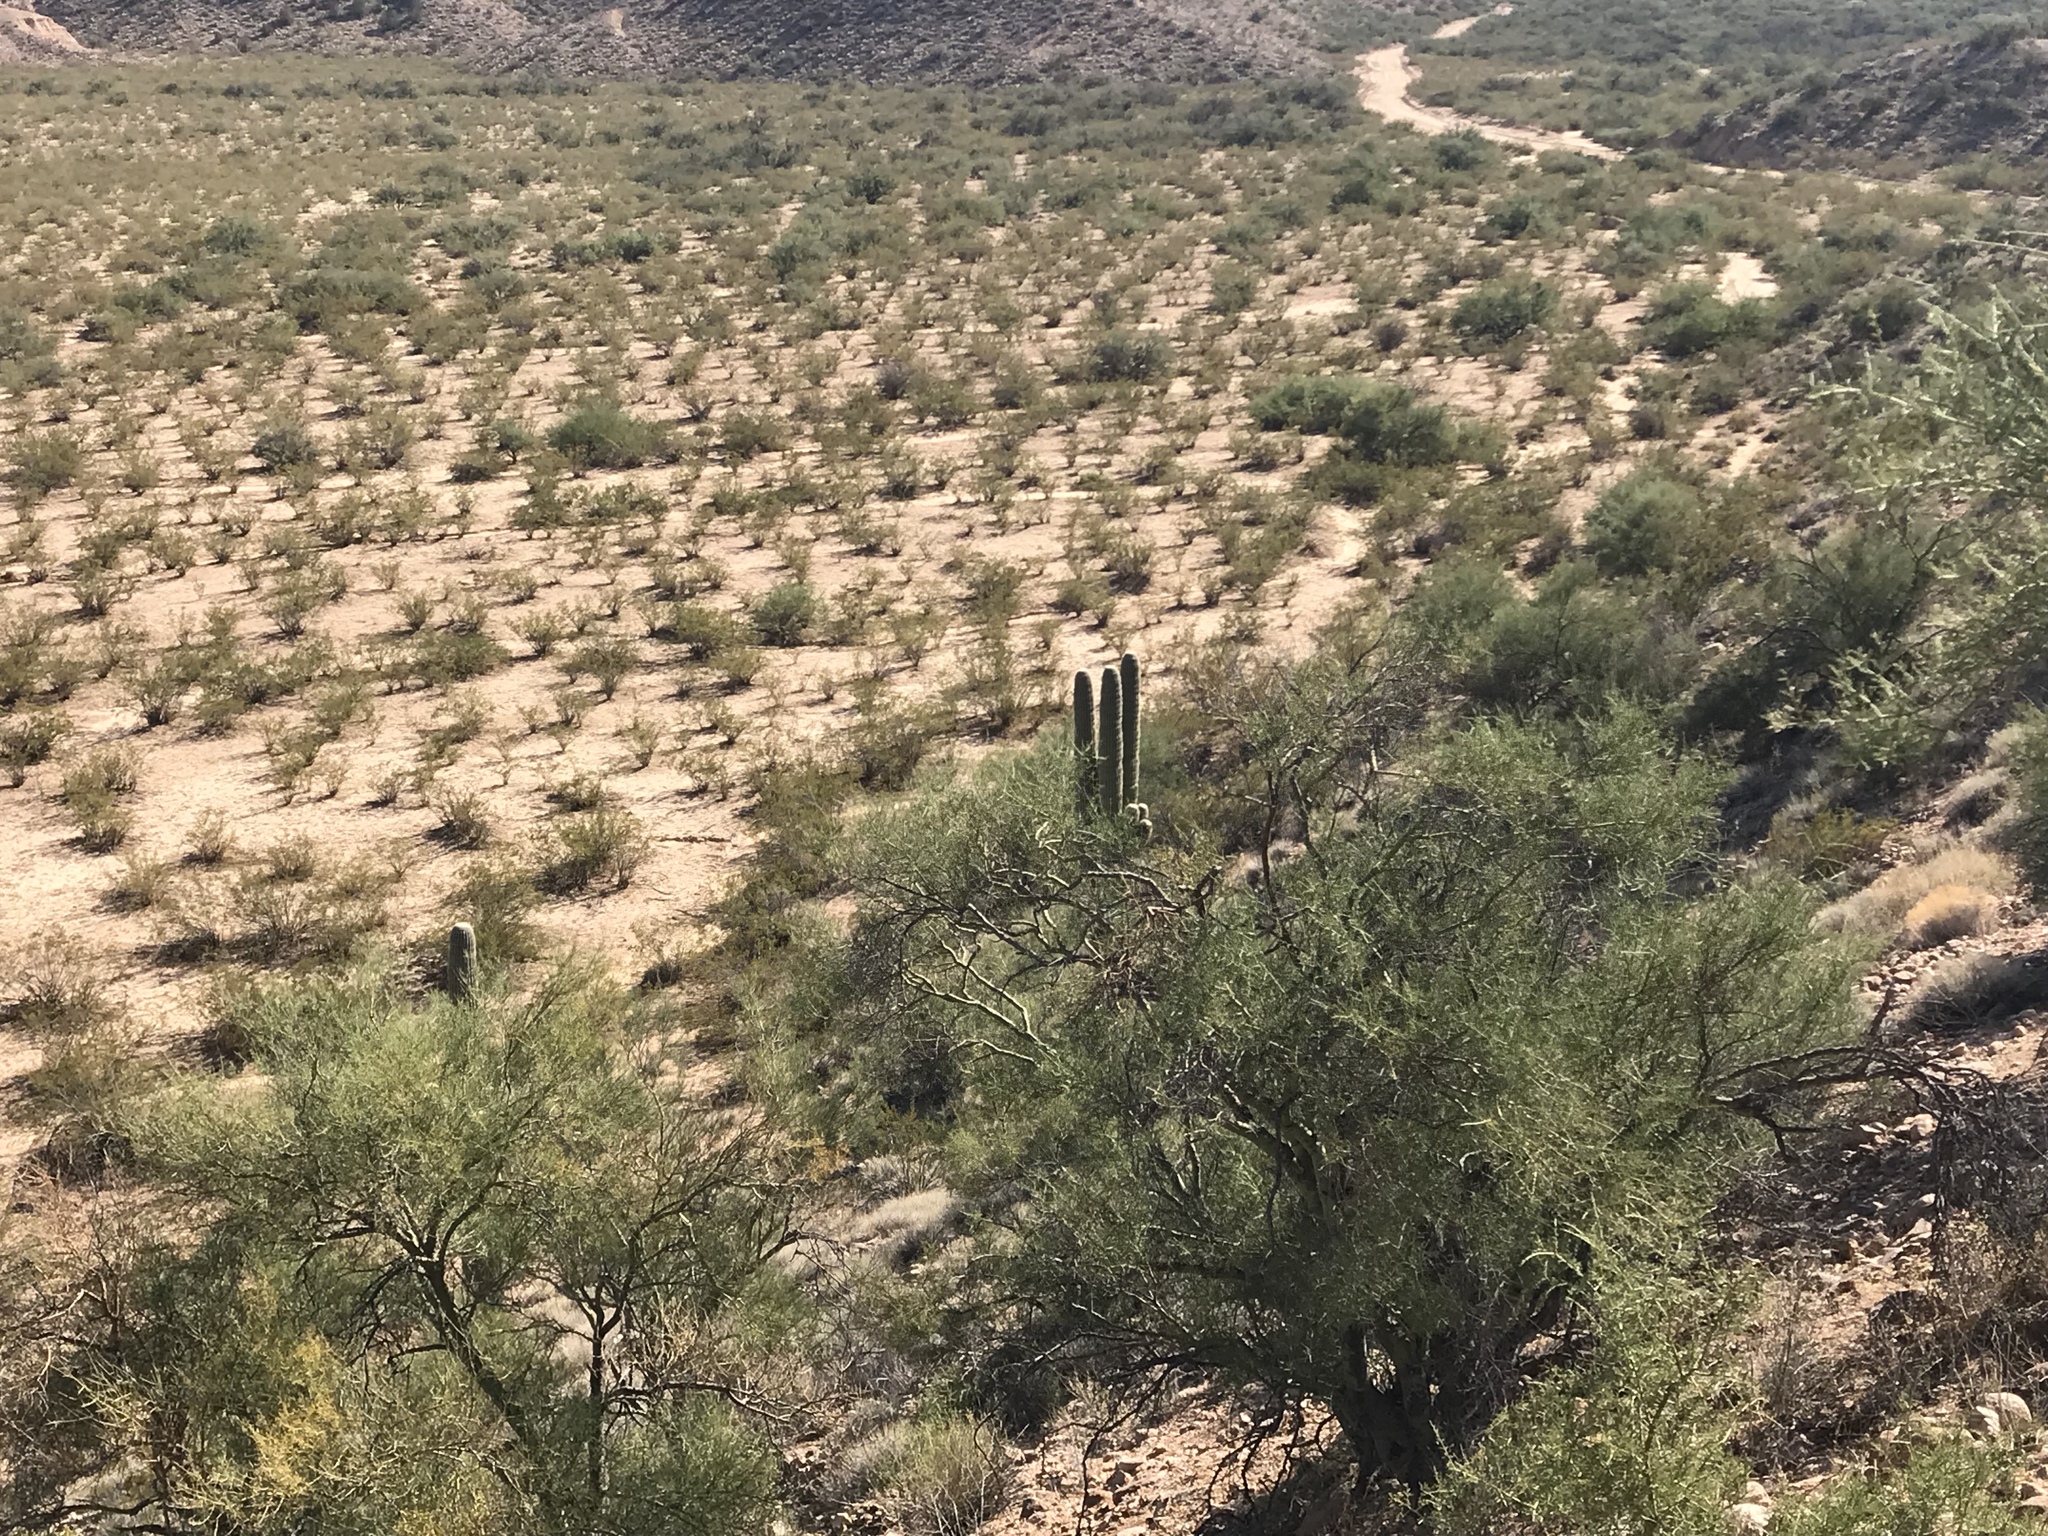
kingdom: Plantae
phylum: Tracheophyta
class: Magnoliopsida
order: Caryophyllales
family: Cactaceae
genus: Carnegiea
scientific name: Carnegiea gigantea
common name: Saguaro
